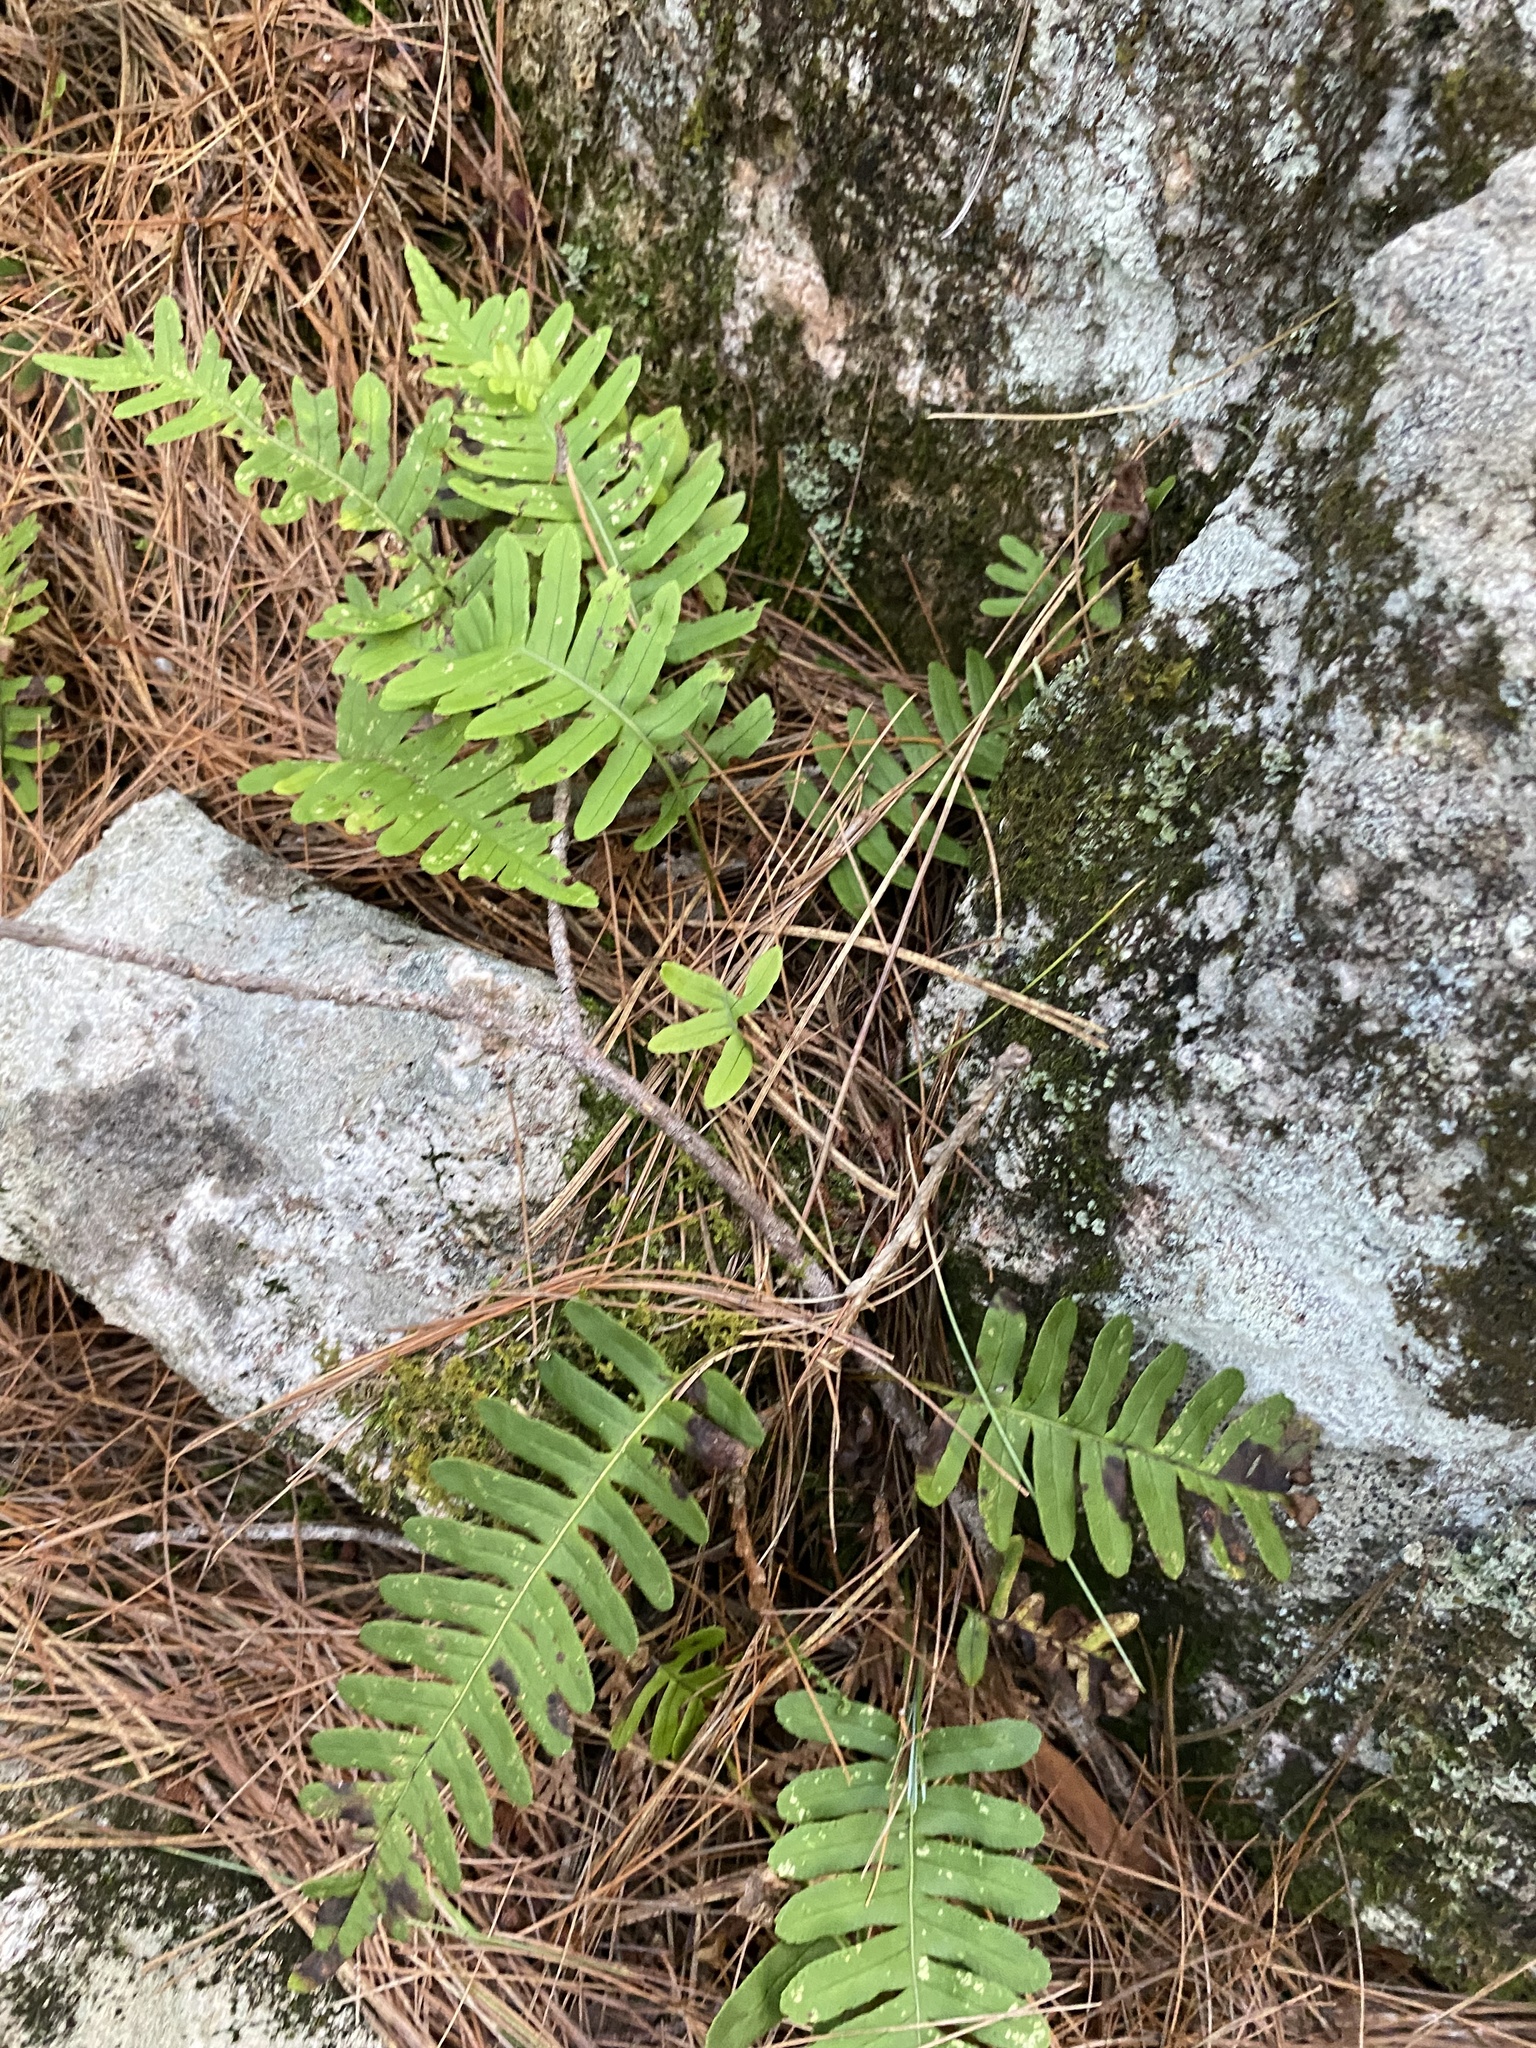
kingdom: Plantae
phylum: Tracheophyta
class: Polypodiopsida
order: Polypodiales
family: Polypodiaceae
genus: Polypodium
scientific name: Polypodium virginianum
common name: American wall fern
